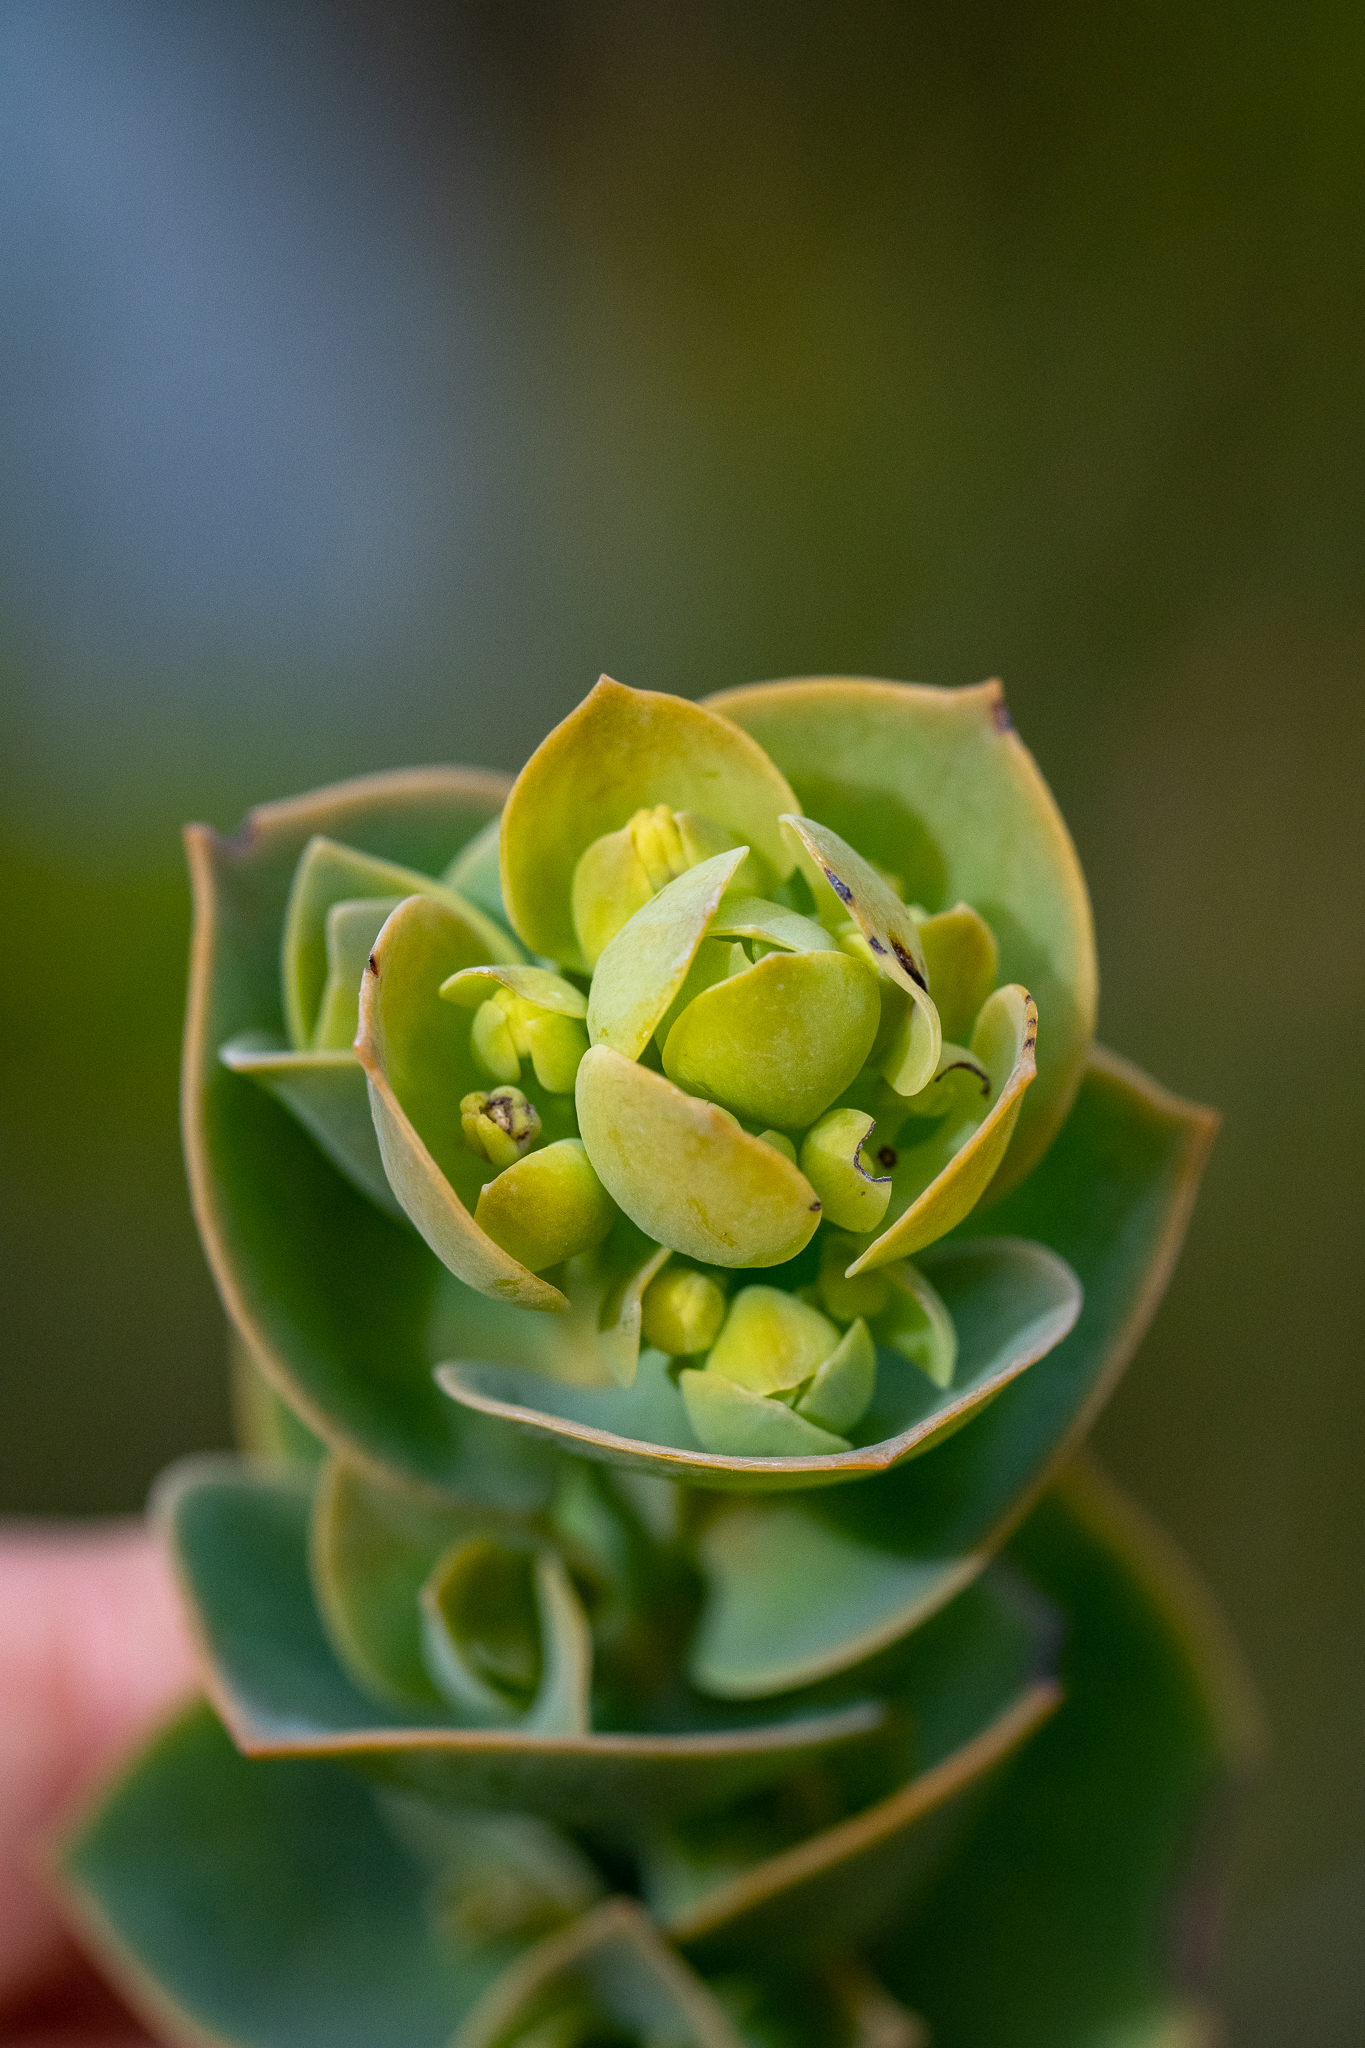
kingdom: Plantae
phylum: Tracheophyta
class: Magnoliopsida
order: Santalales
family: Thesiaceae
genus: Thesium
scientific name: Thesium euphorbioides
